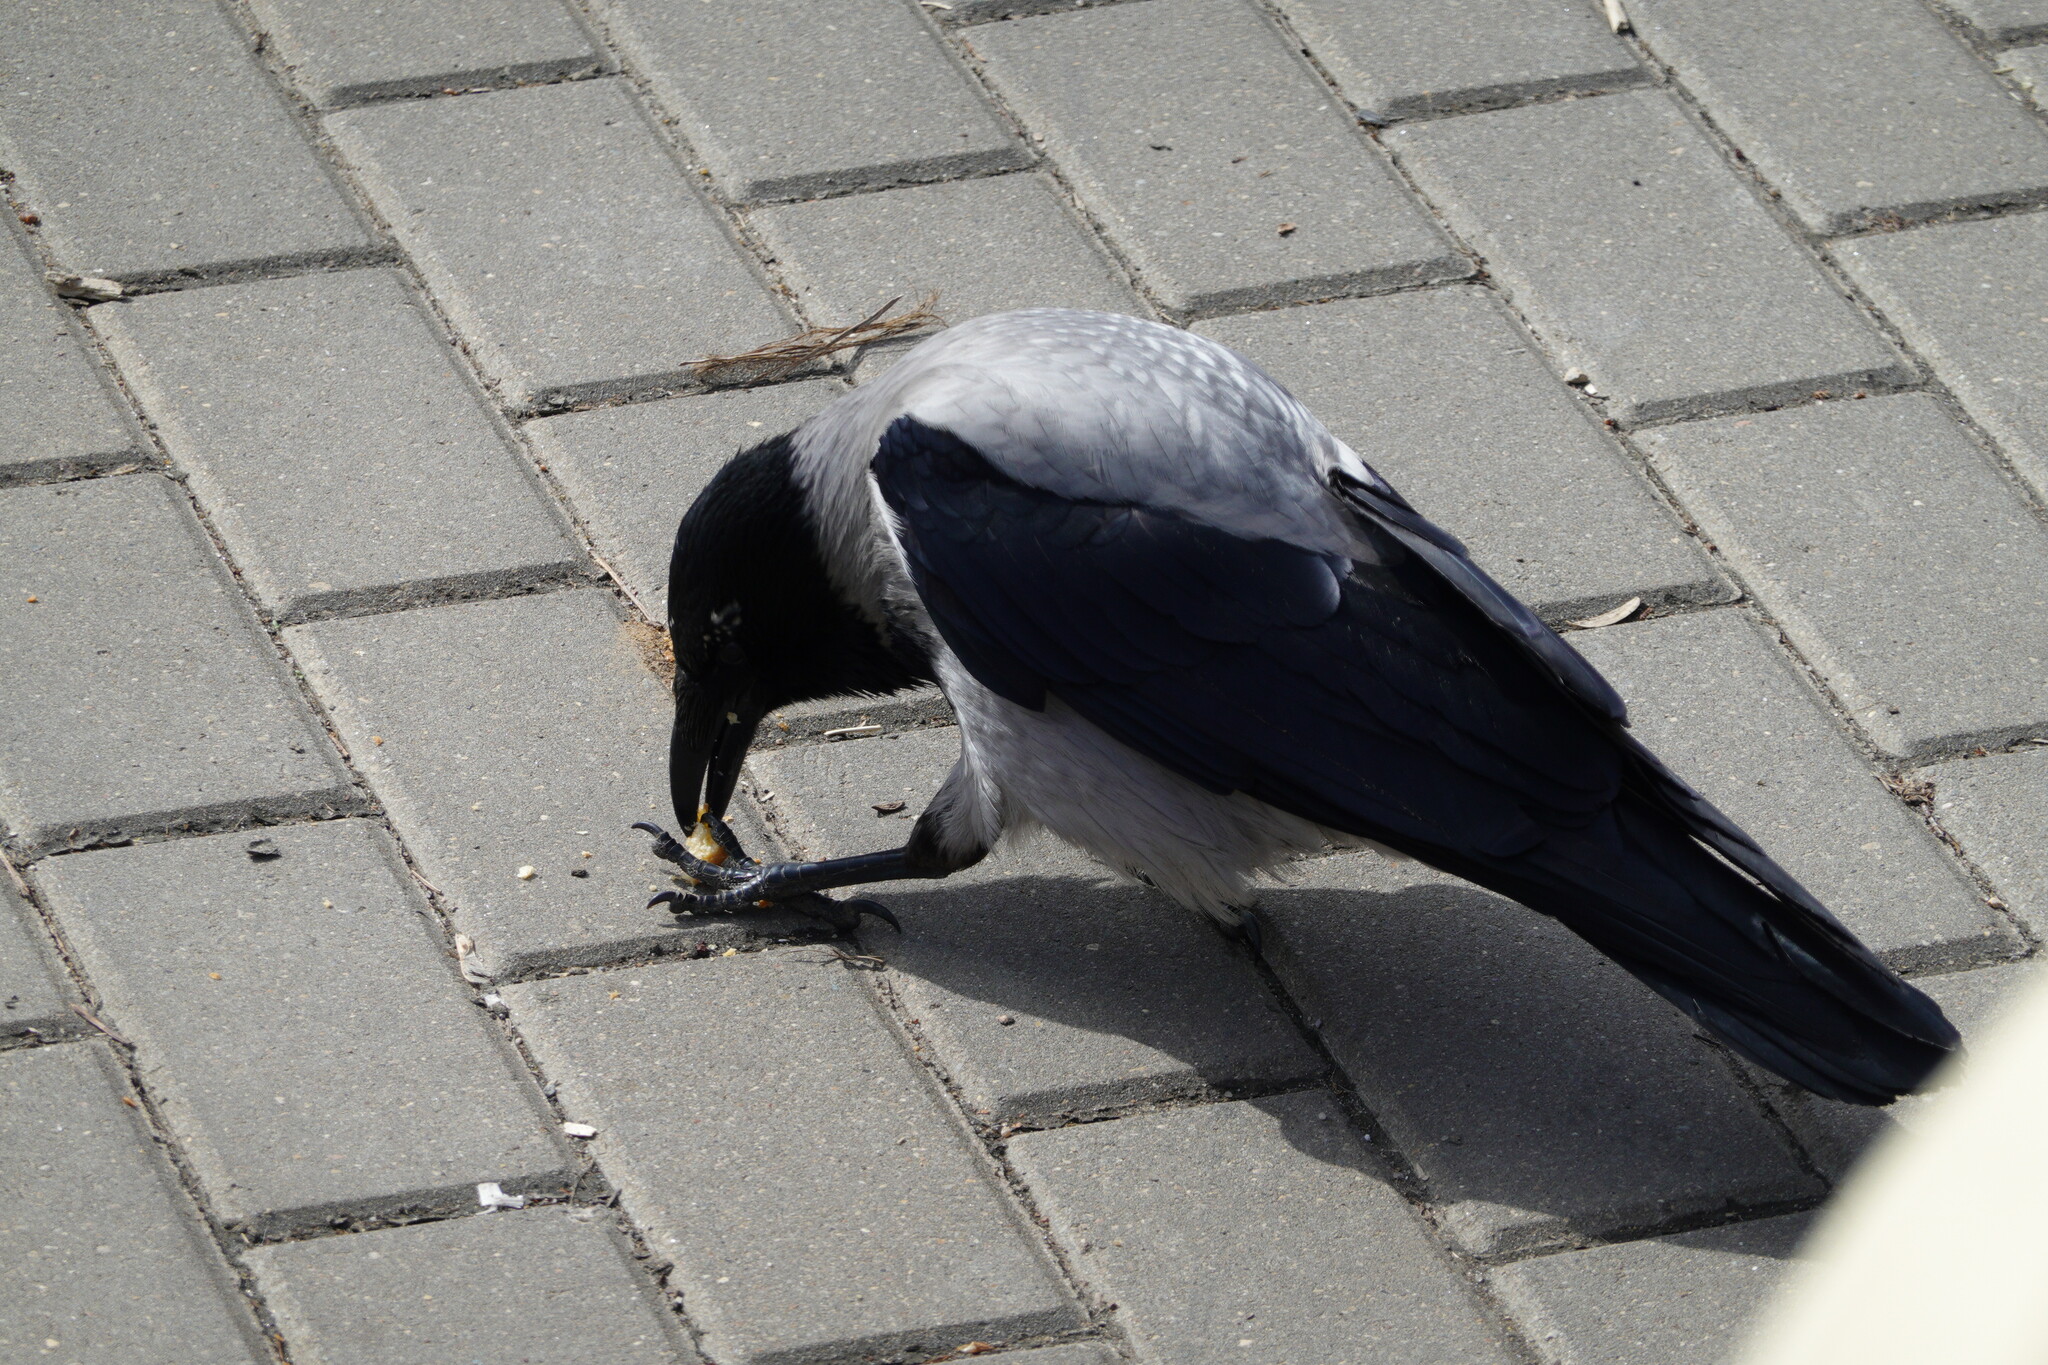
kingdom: Animalia
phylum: Chordata
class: Aves
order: Passeriformes
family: Corvidae
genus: Corvus
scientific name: Corvus cornix
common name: Hooded crow
